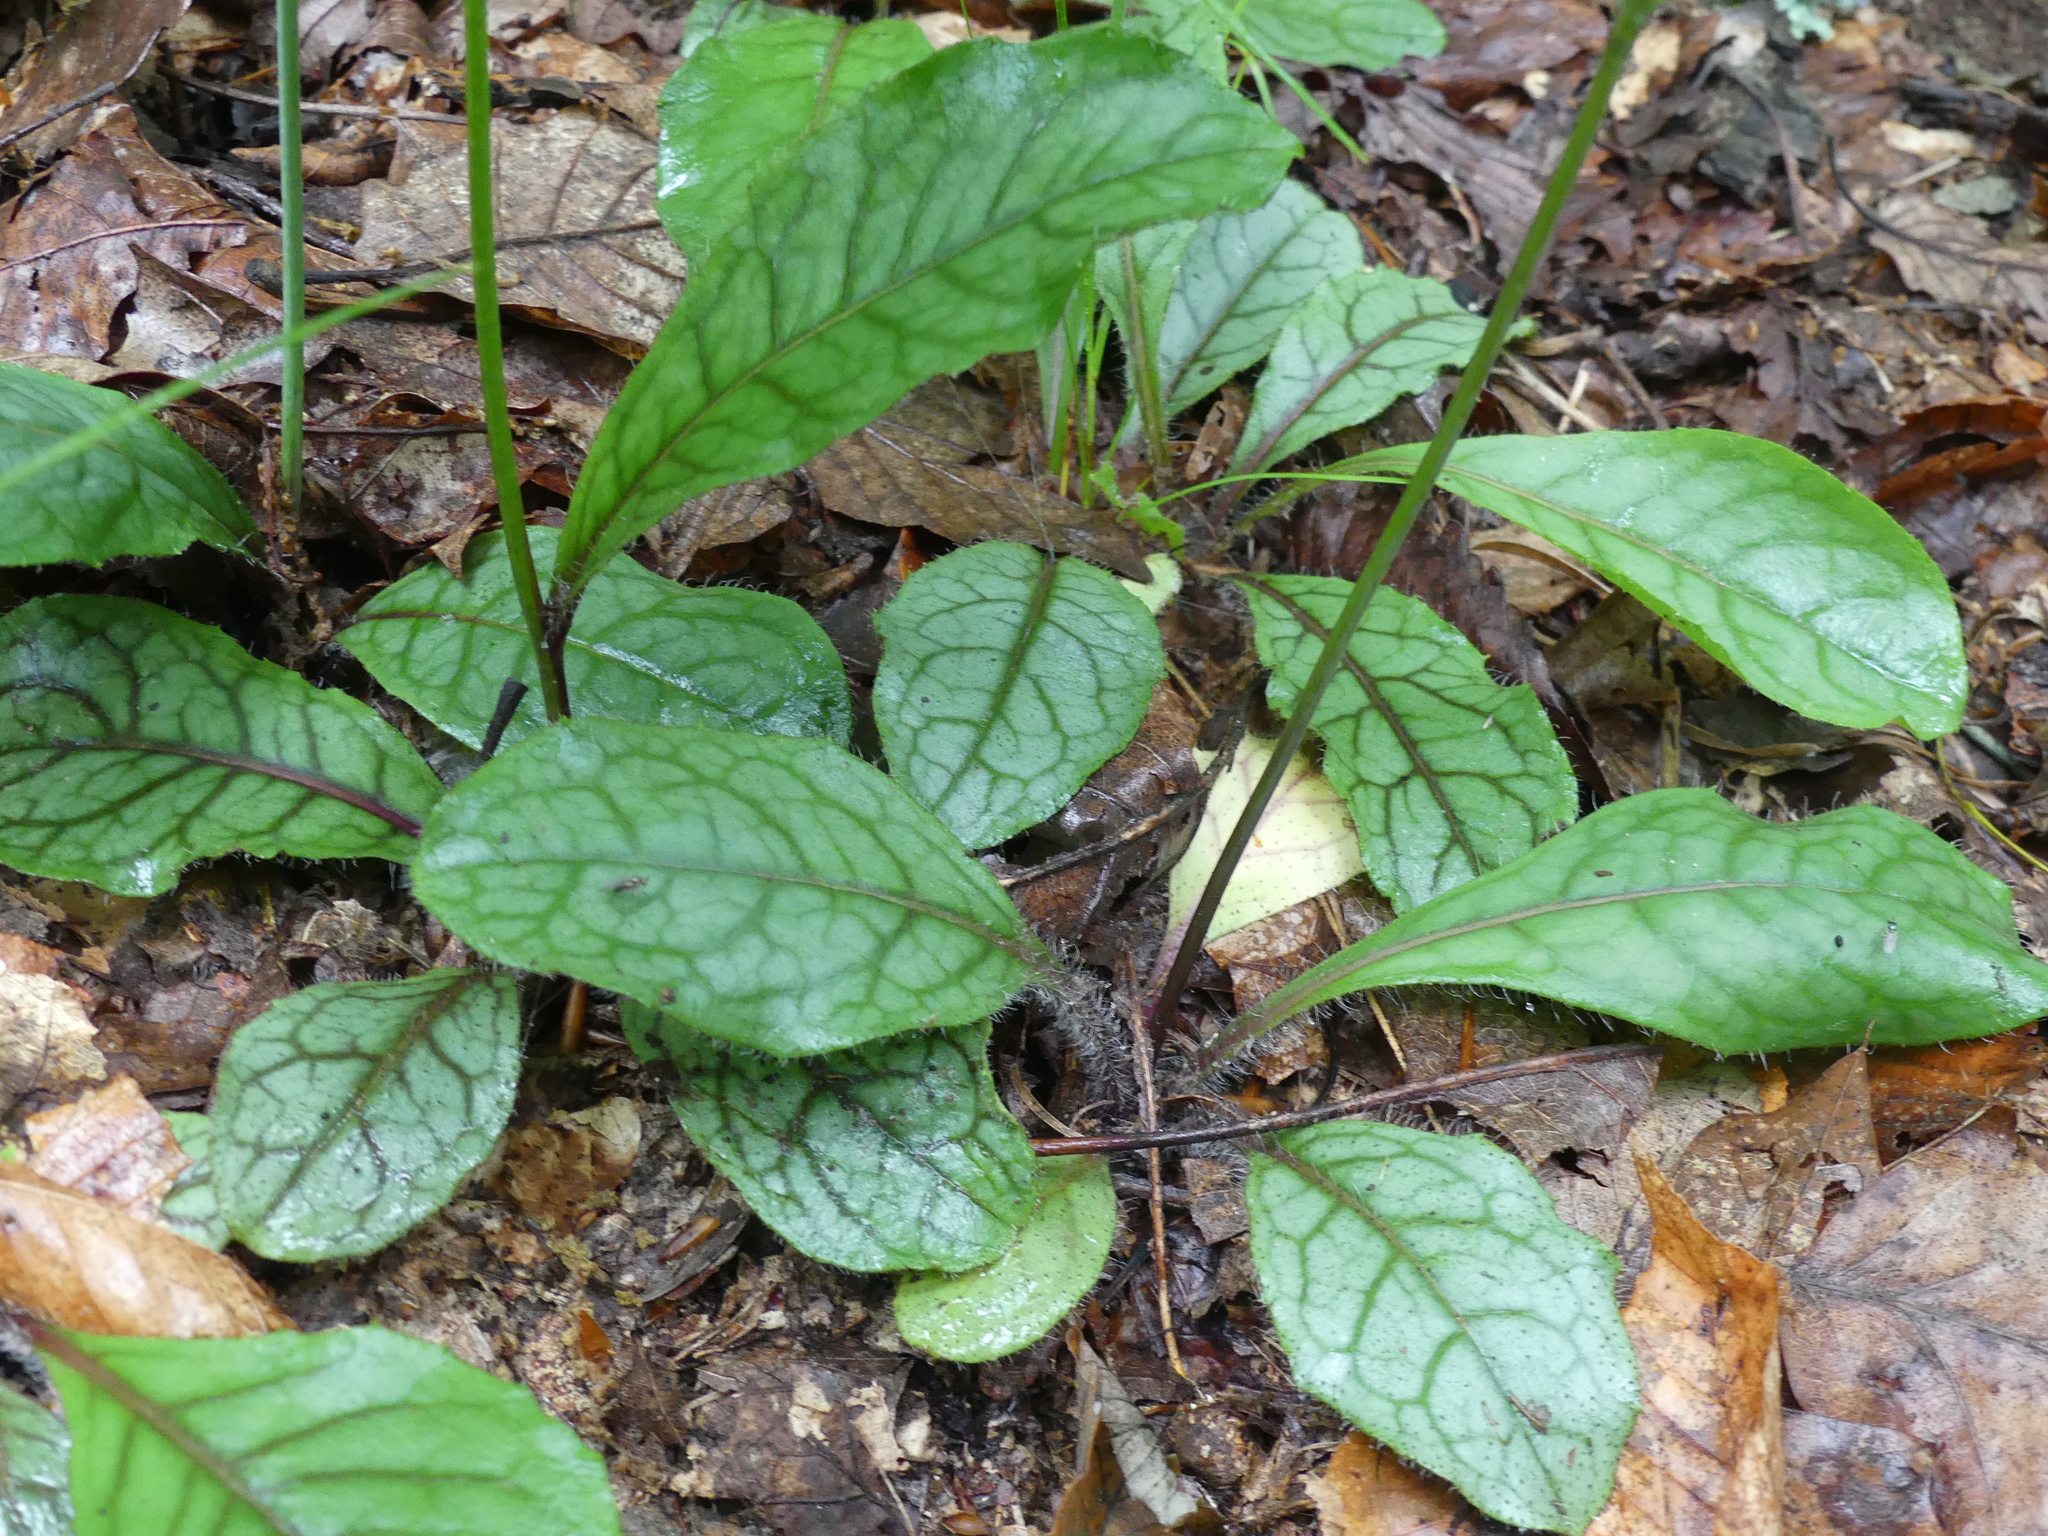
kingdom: Plantae
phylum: Tracheophyta
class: Magnoliopsida
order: Asterales
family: Asteraceae
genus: Hieracium
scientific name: Hieracium venosum
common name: Rattlesnake hawkweed
